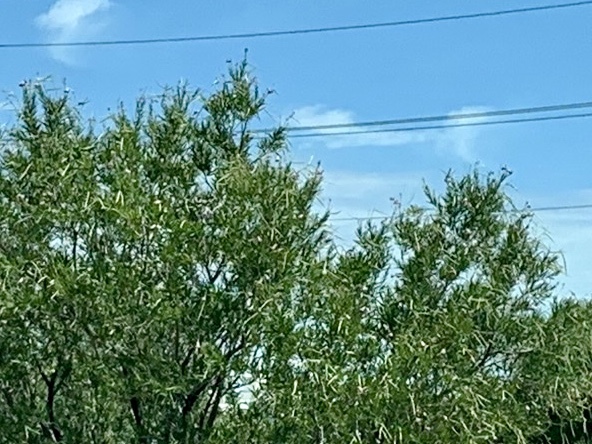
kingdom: Plantae
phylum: Tracheophyta
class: Magnoliopsida
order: Lamiales
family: Bignoniaceae
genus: Chilopsis
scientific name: Chilopsis linearis
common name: Desert-willow
